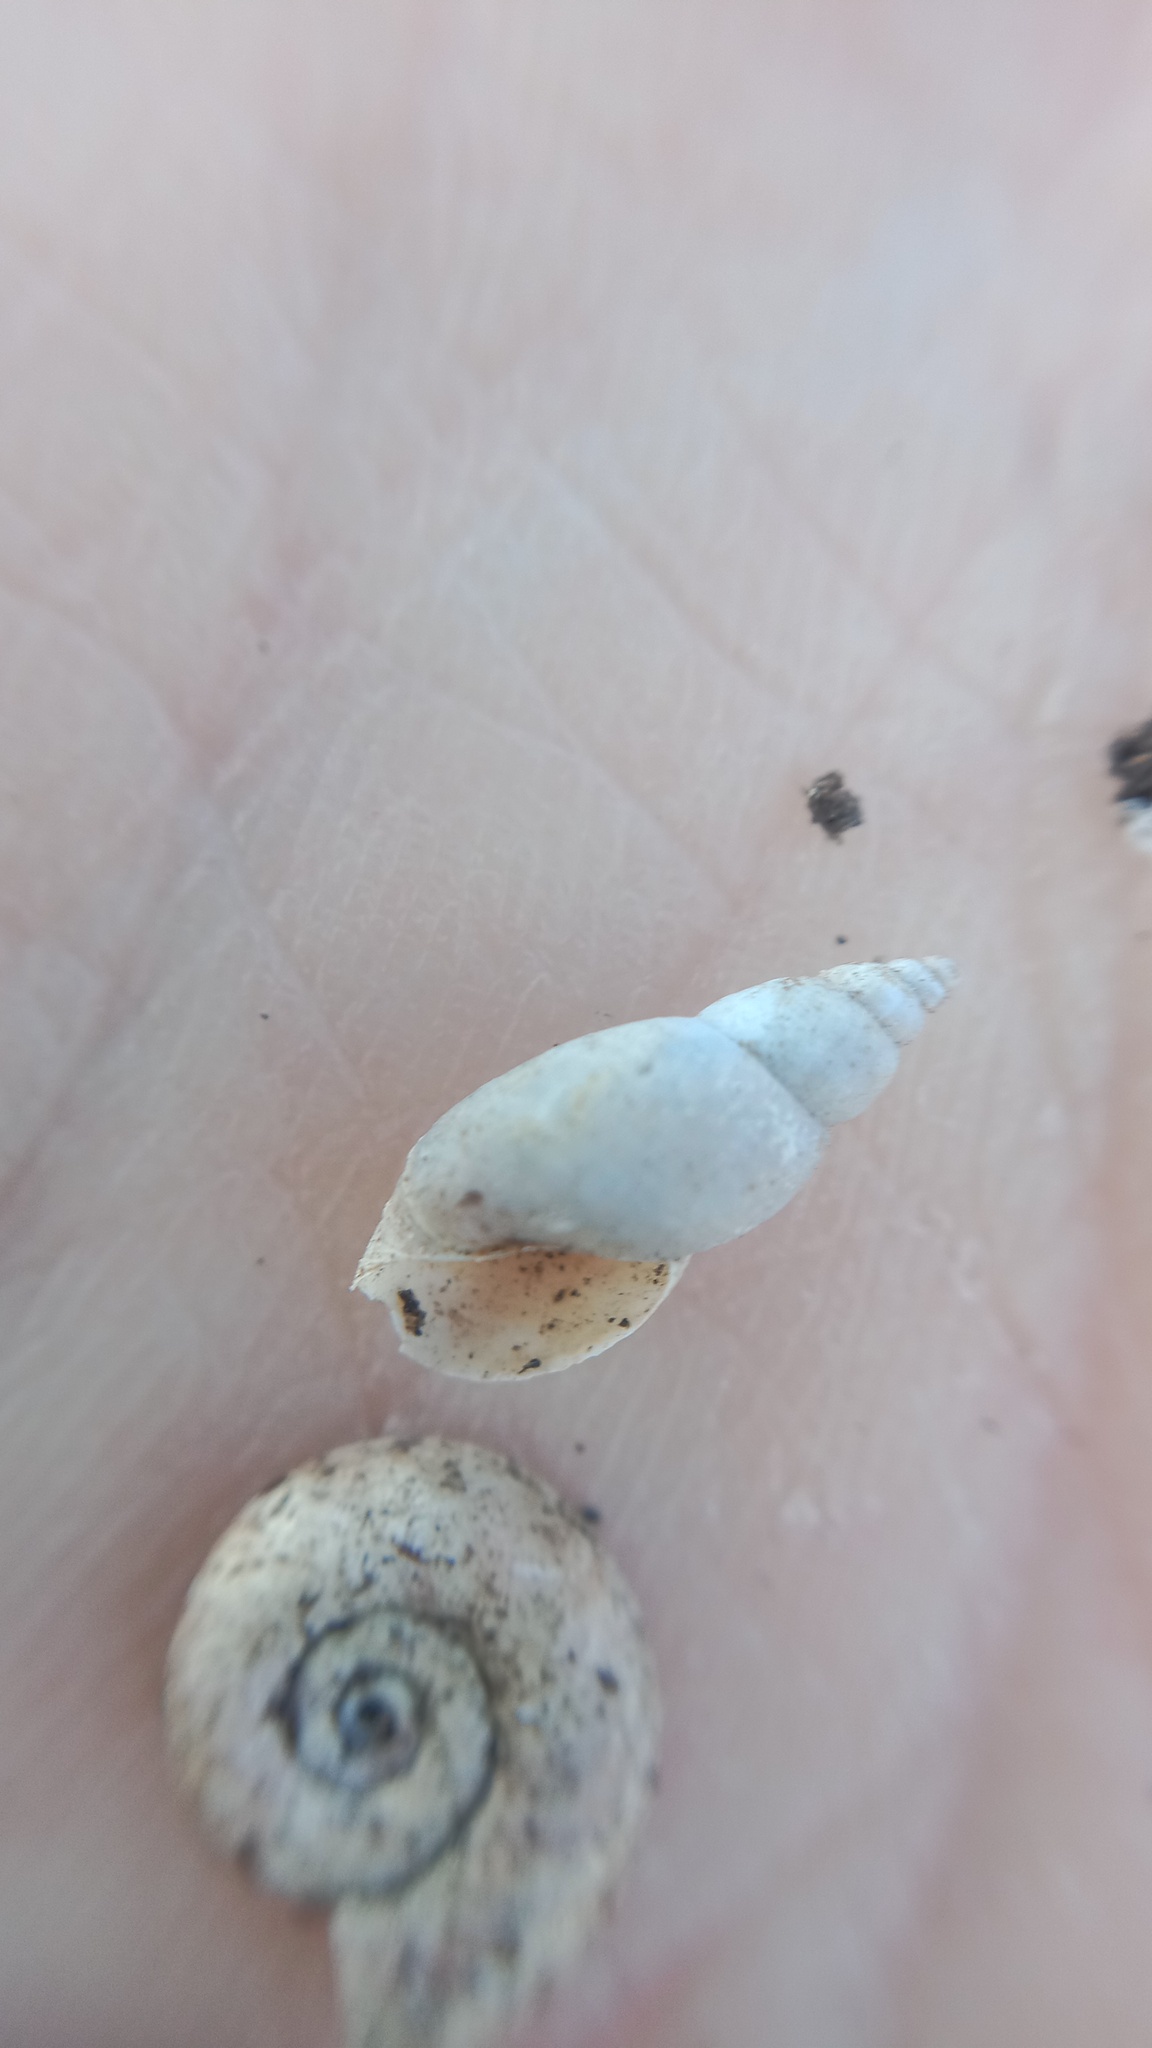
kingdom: Animalia
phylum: Mollusca
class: Gastropoda
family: Lymnaeidae
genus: Stagnicola
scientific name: Stagnicola palustris
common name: Common european pondsnail
